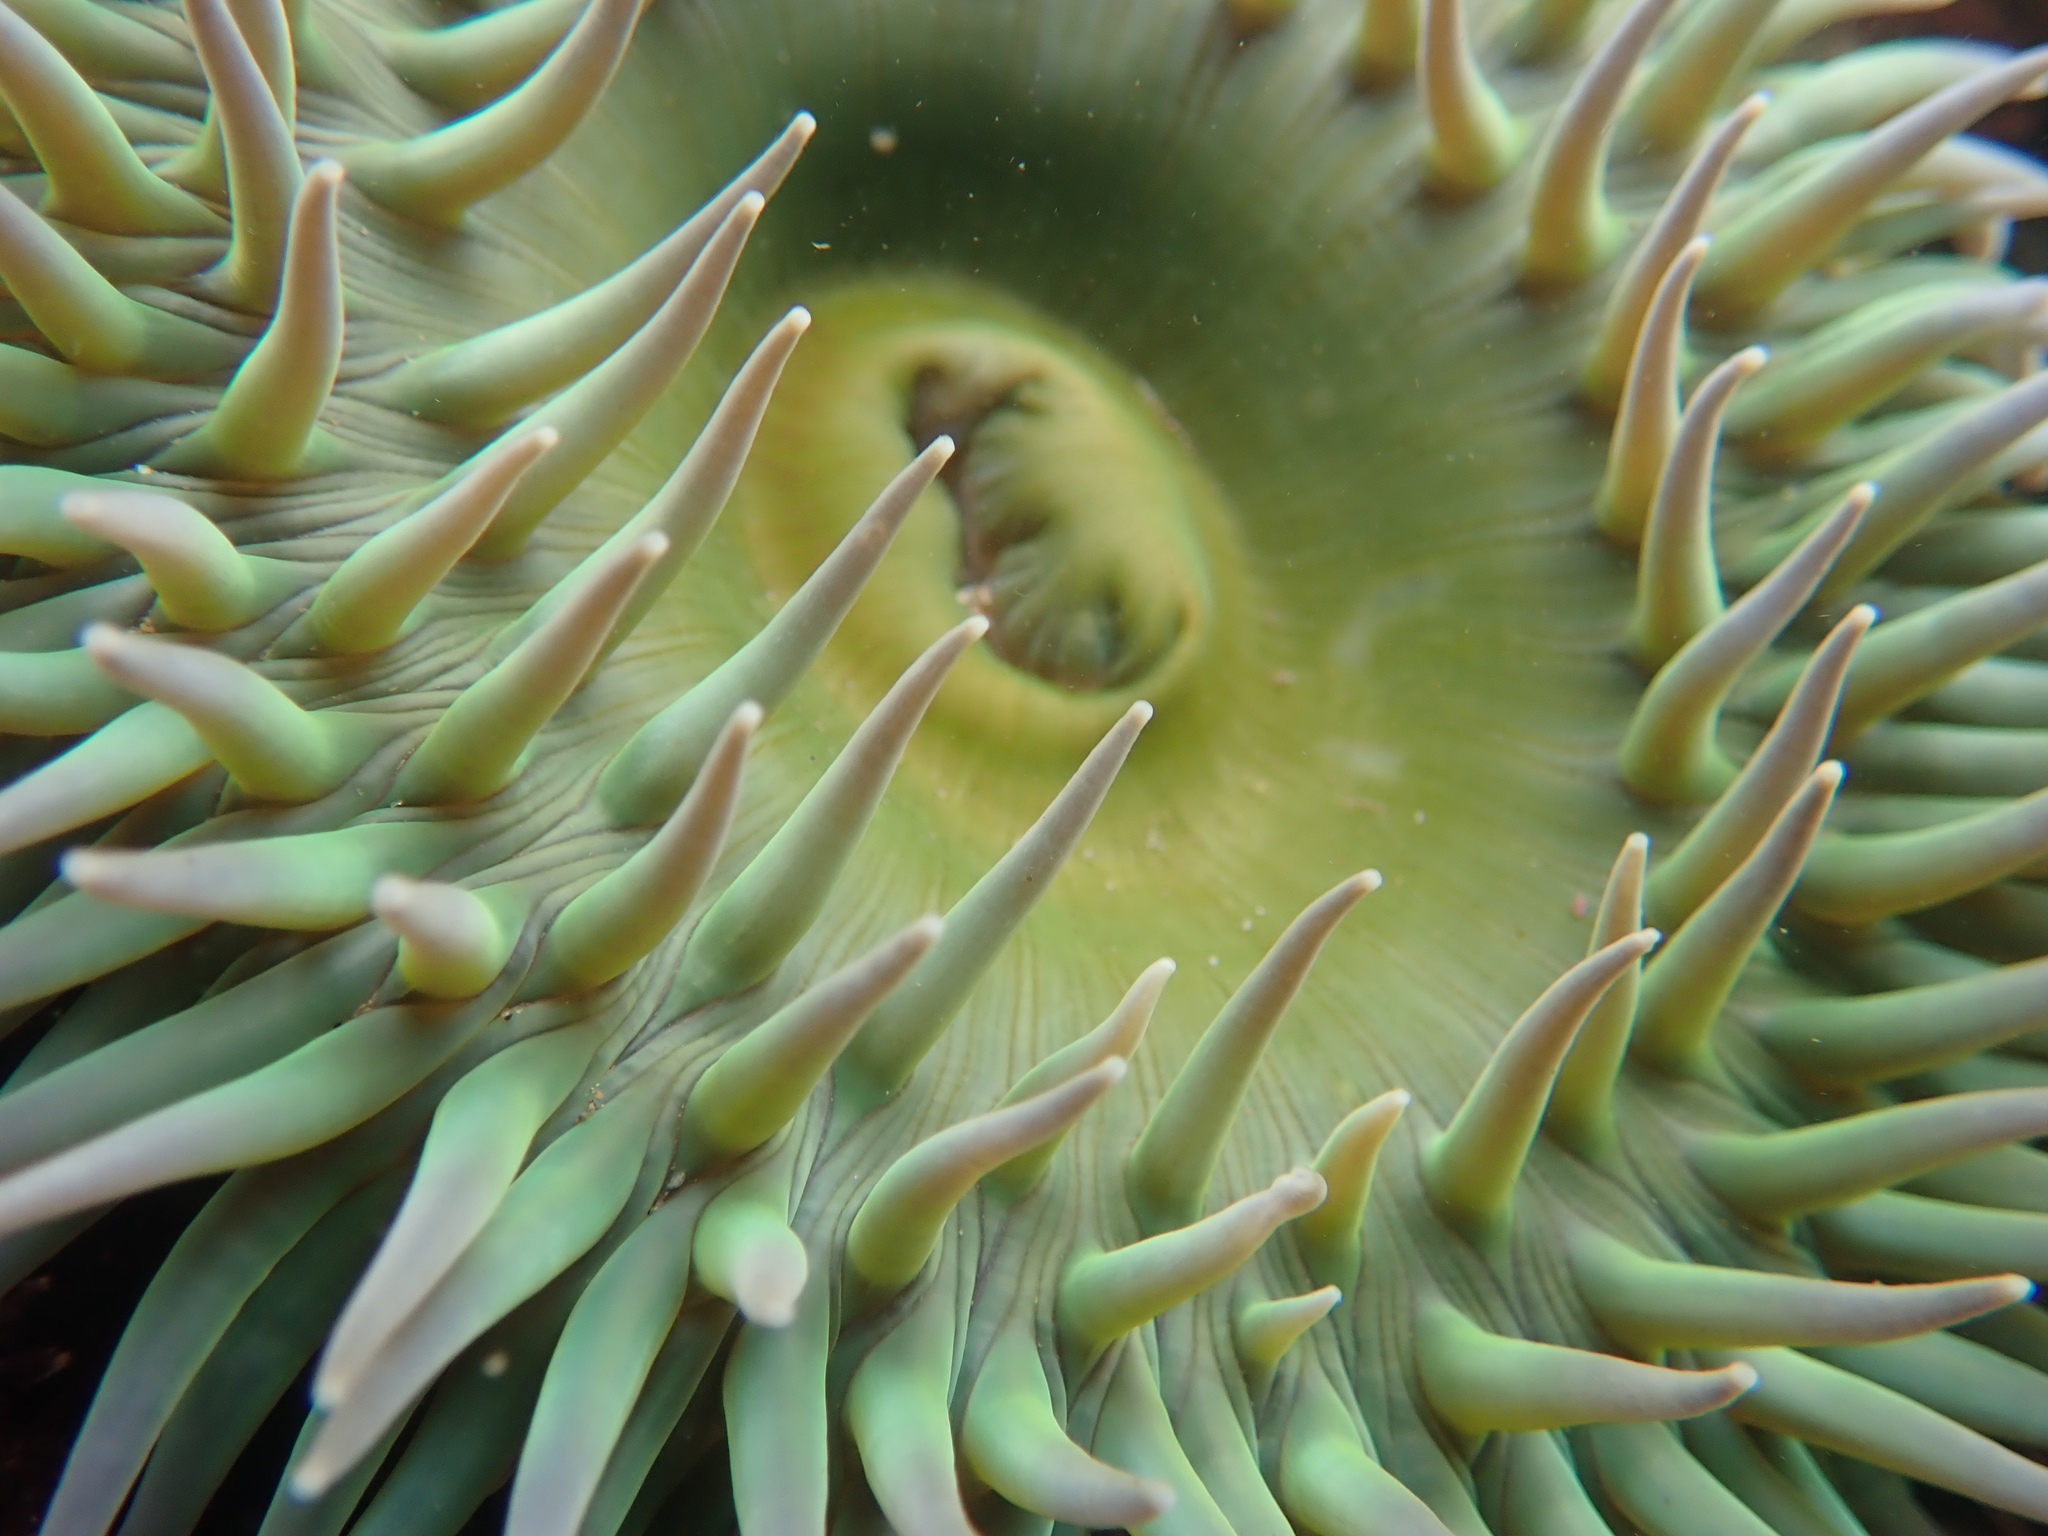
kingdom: Animalia
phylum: Cnidaria
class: Anthozoa
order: Actiniaria
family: Actiniidae
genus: Anthopleura
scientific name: Anthopleura xanthogrammica
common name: Giant green anemone
